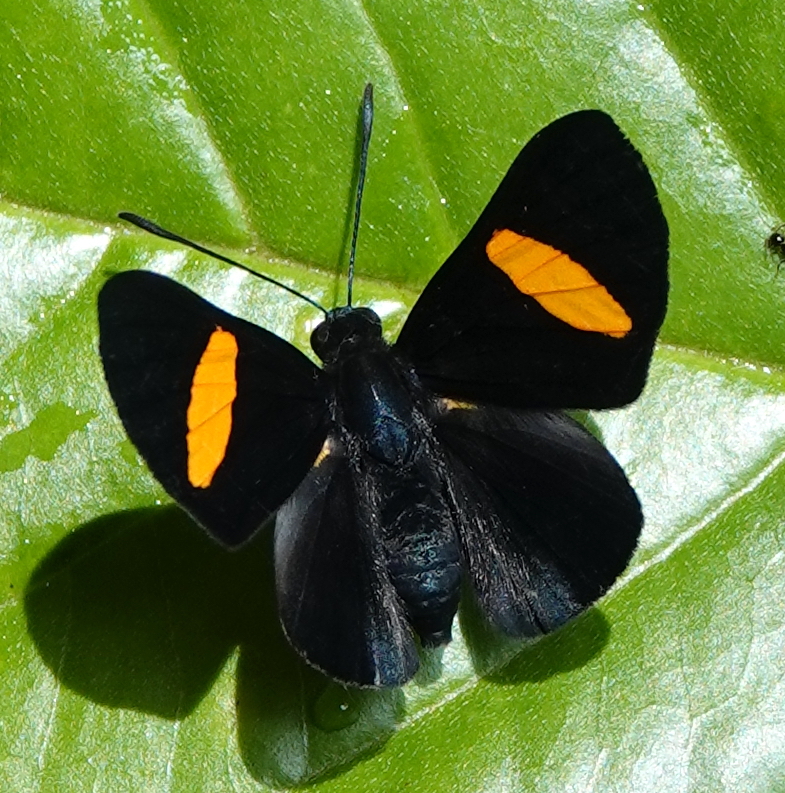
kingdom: Animalia
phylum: Arthropoda
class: Insecta
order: Lepidoptera
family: Lycaenidae
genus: Melanis
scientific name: Melanis agyrtus
